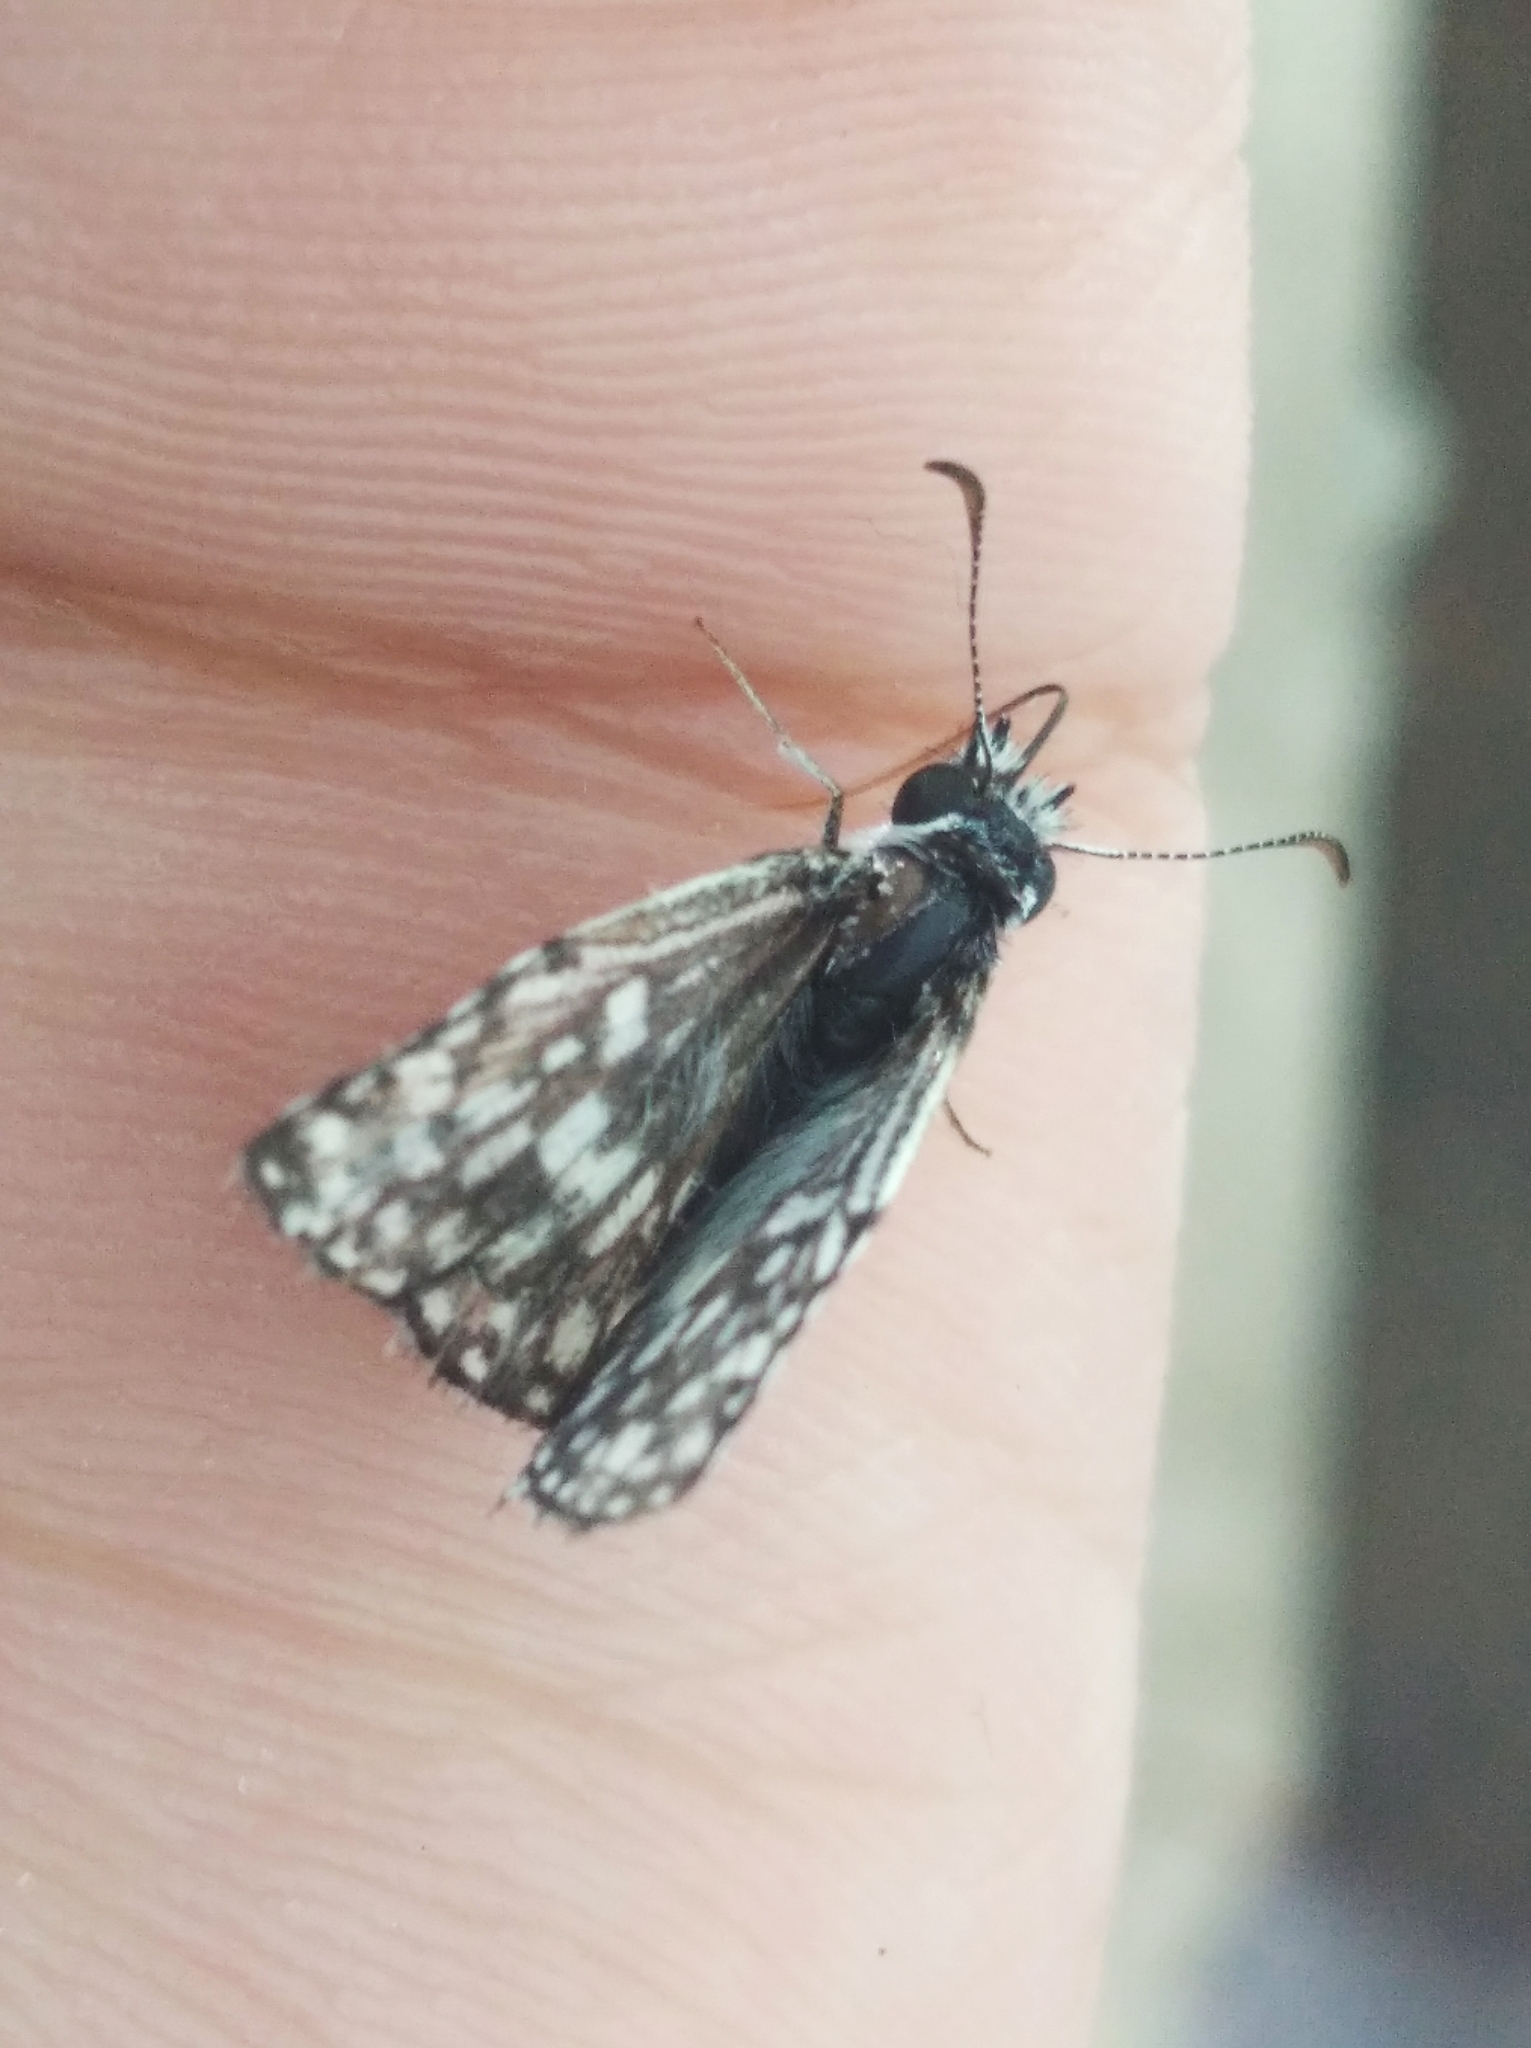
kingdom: Animalia
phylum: Arthropoda
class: Insecta
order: Lepidoptera
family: Hesperiidae
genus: Pyrgus
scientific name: Pyrgus oileus
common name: Tropical checkered-skipper
